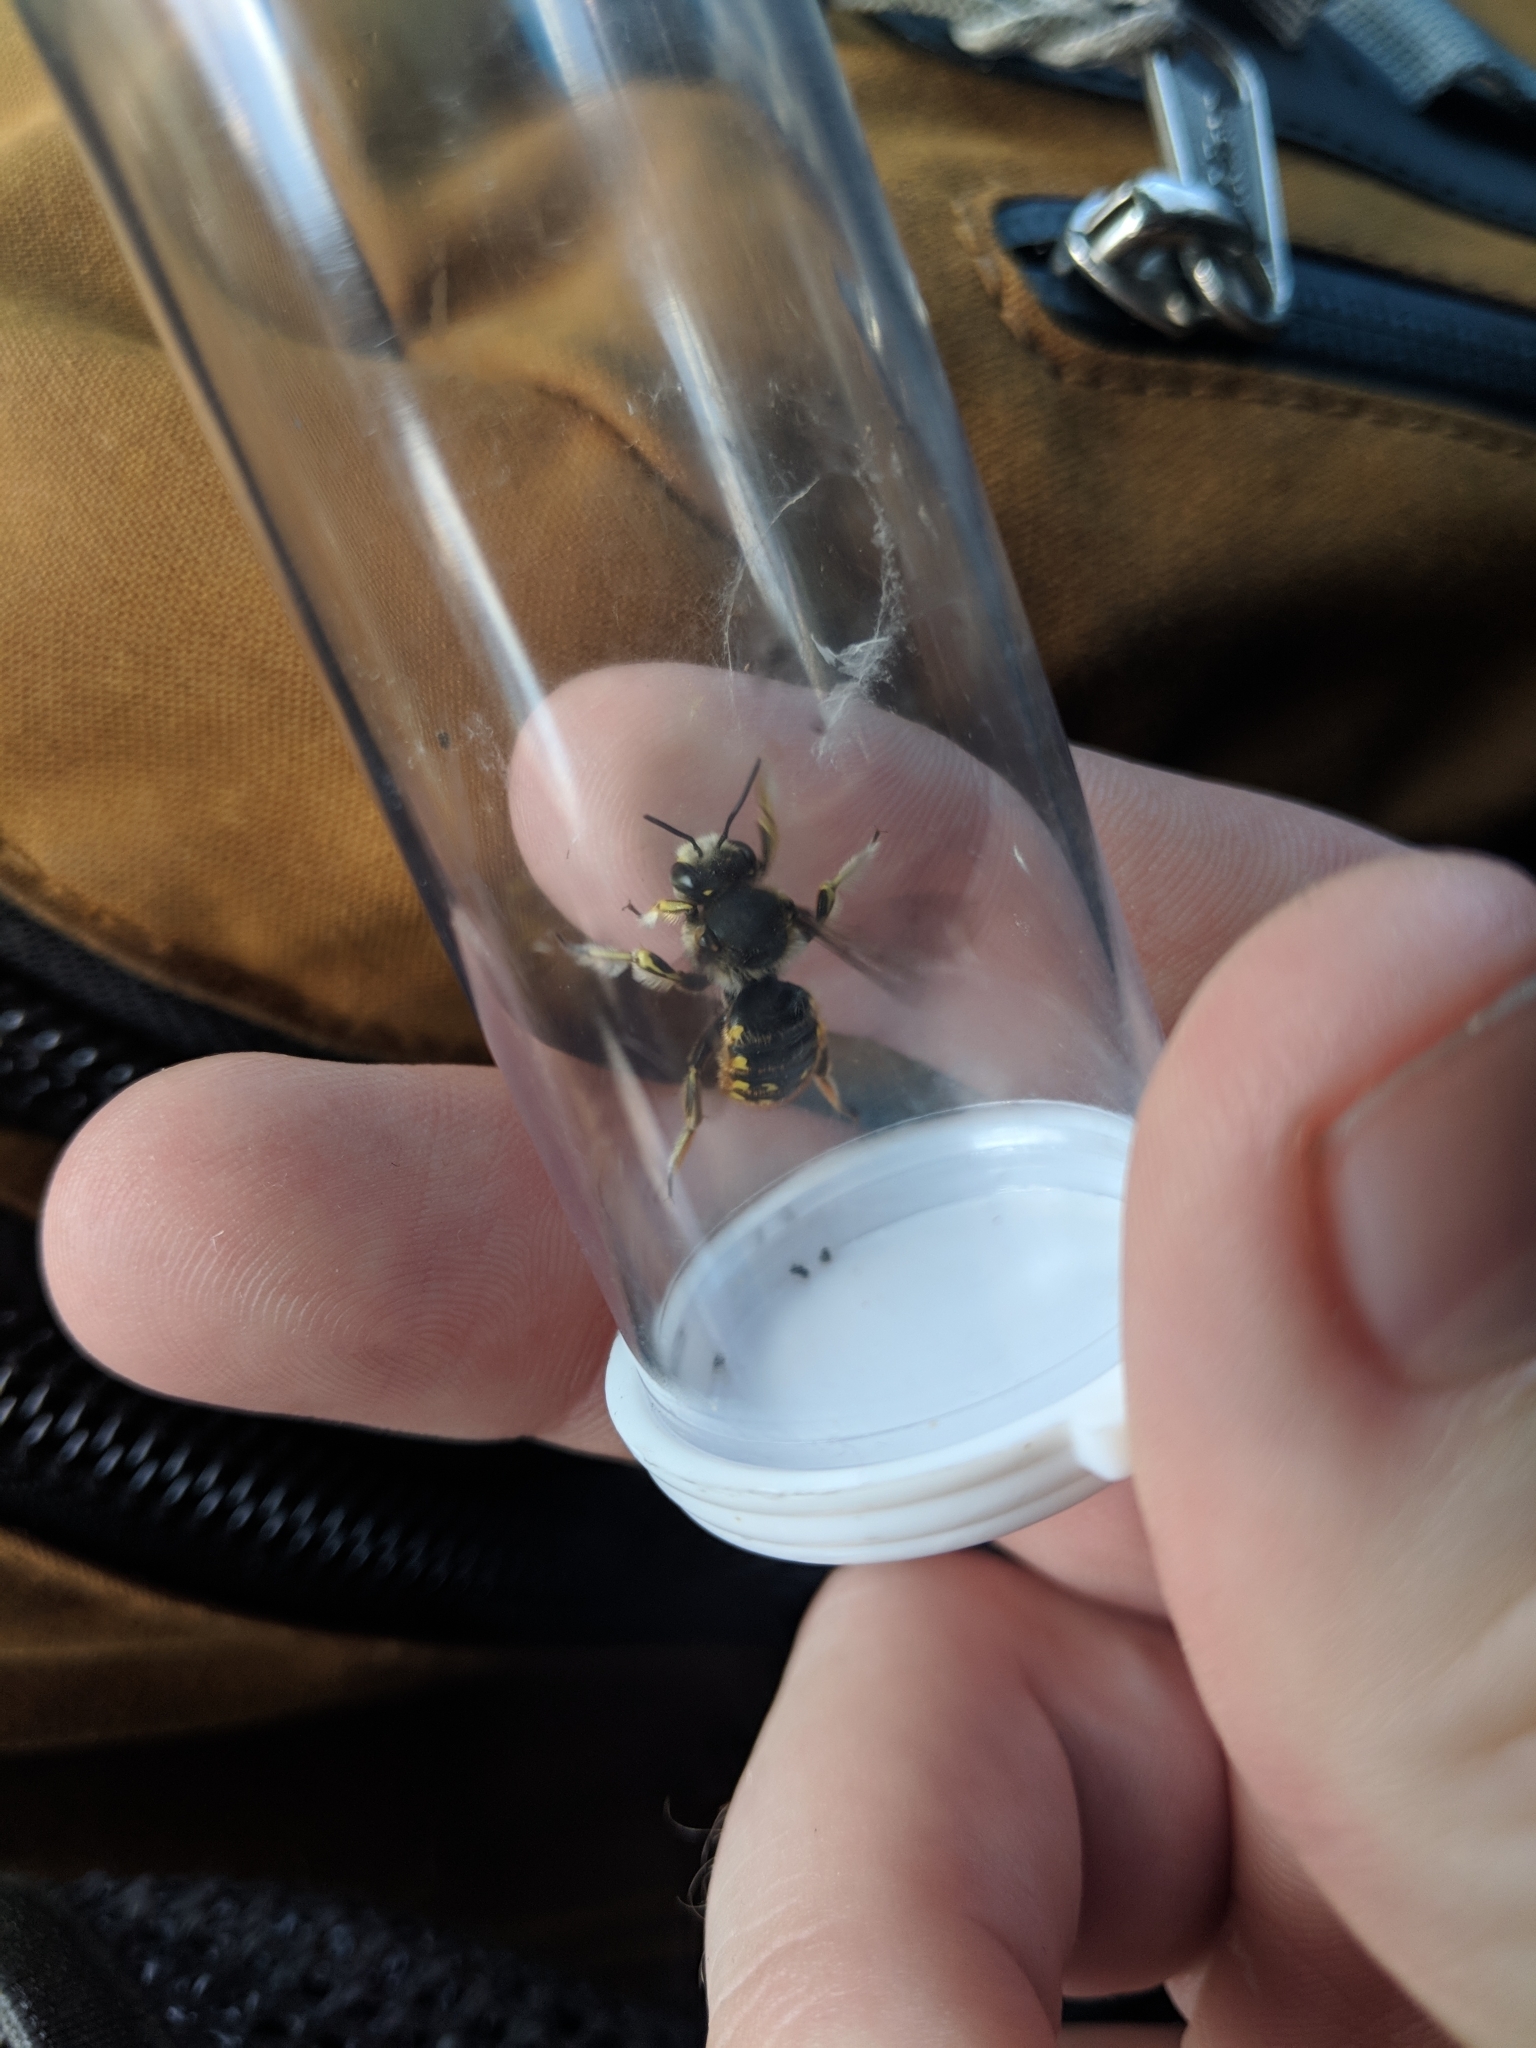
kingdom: Animalia
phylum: Arthropoda
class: Insecta
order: Hymenoptera
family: Megachilidae
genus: Anthidium
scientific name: Anthidium manicatum
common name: Wool carder bee
